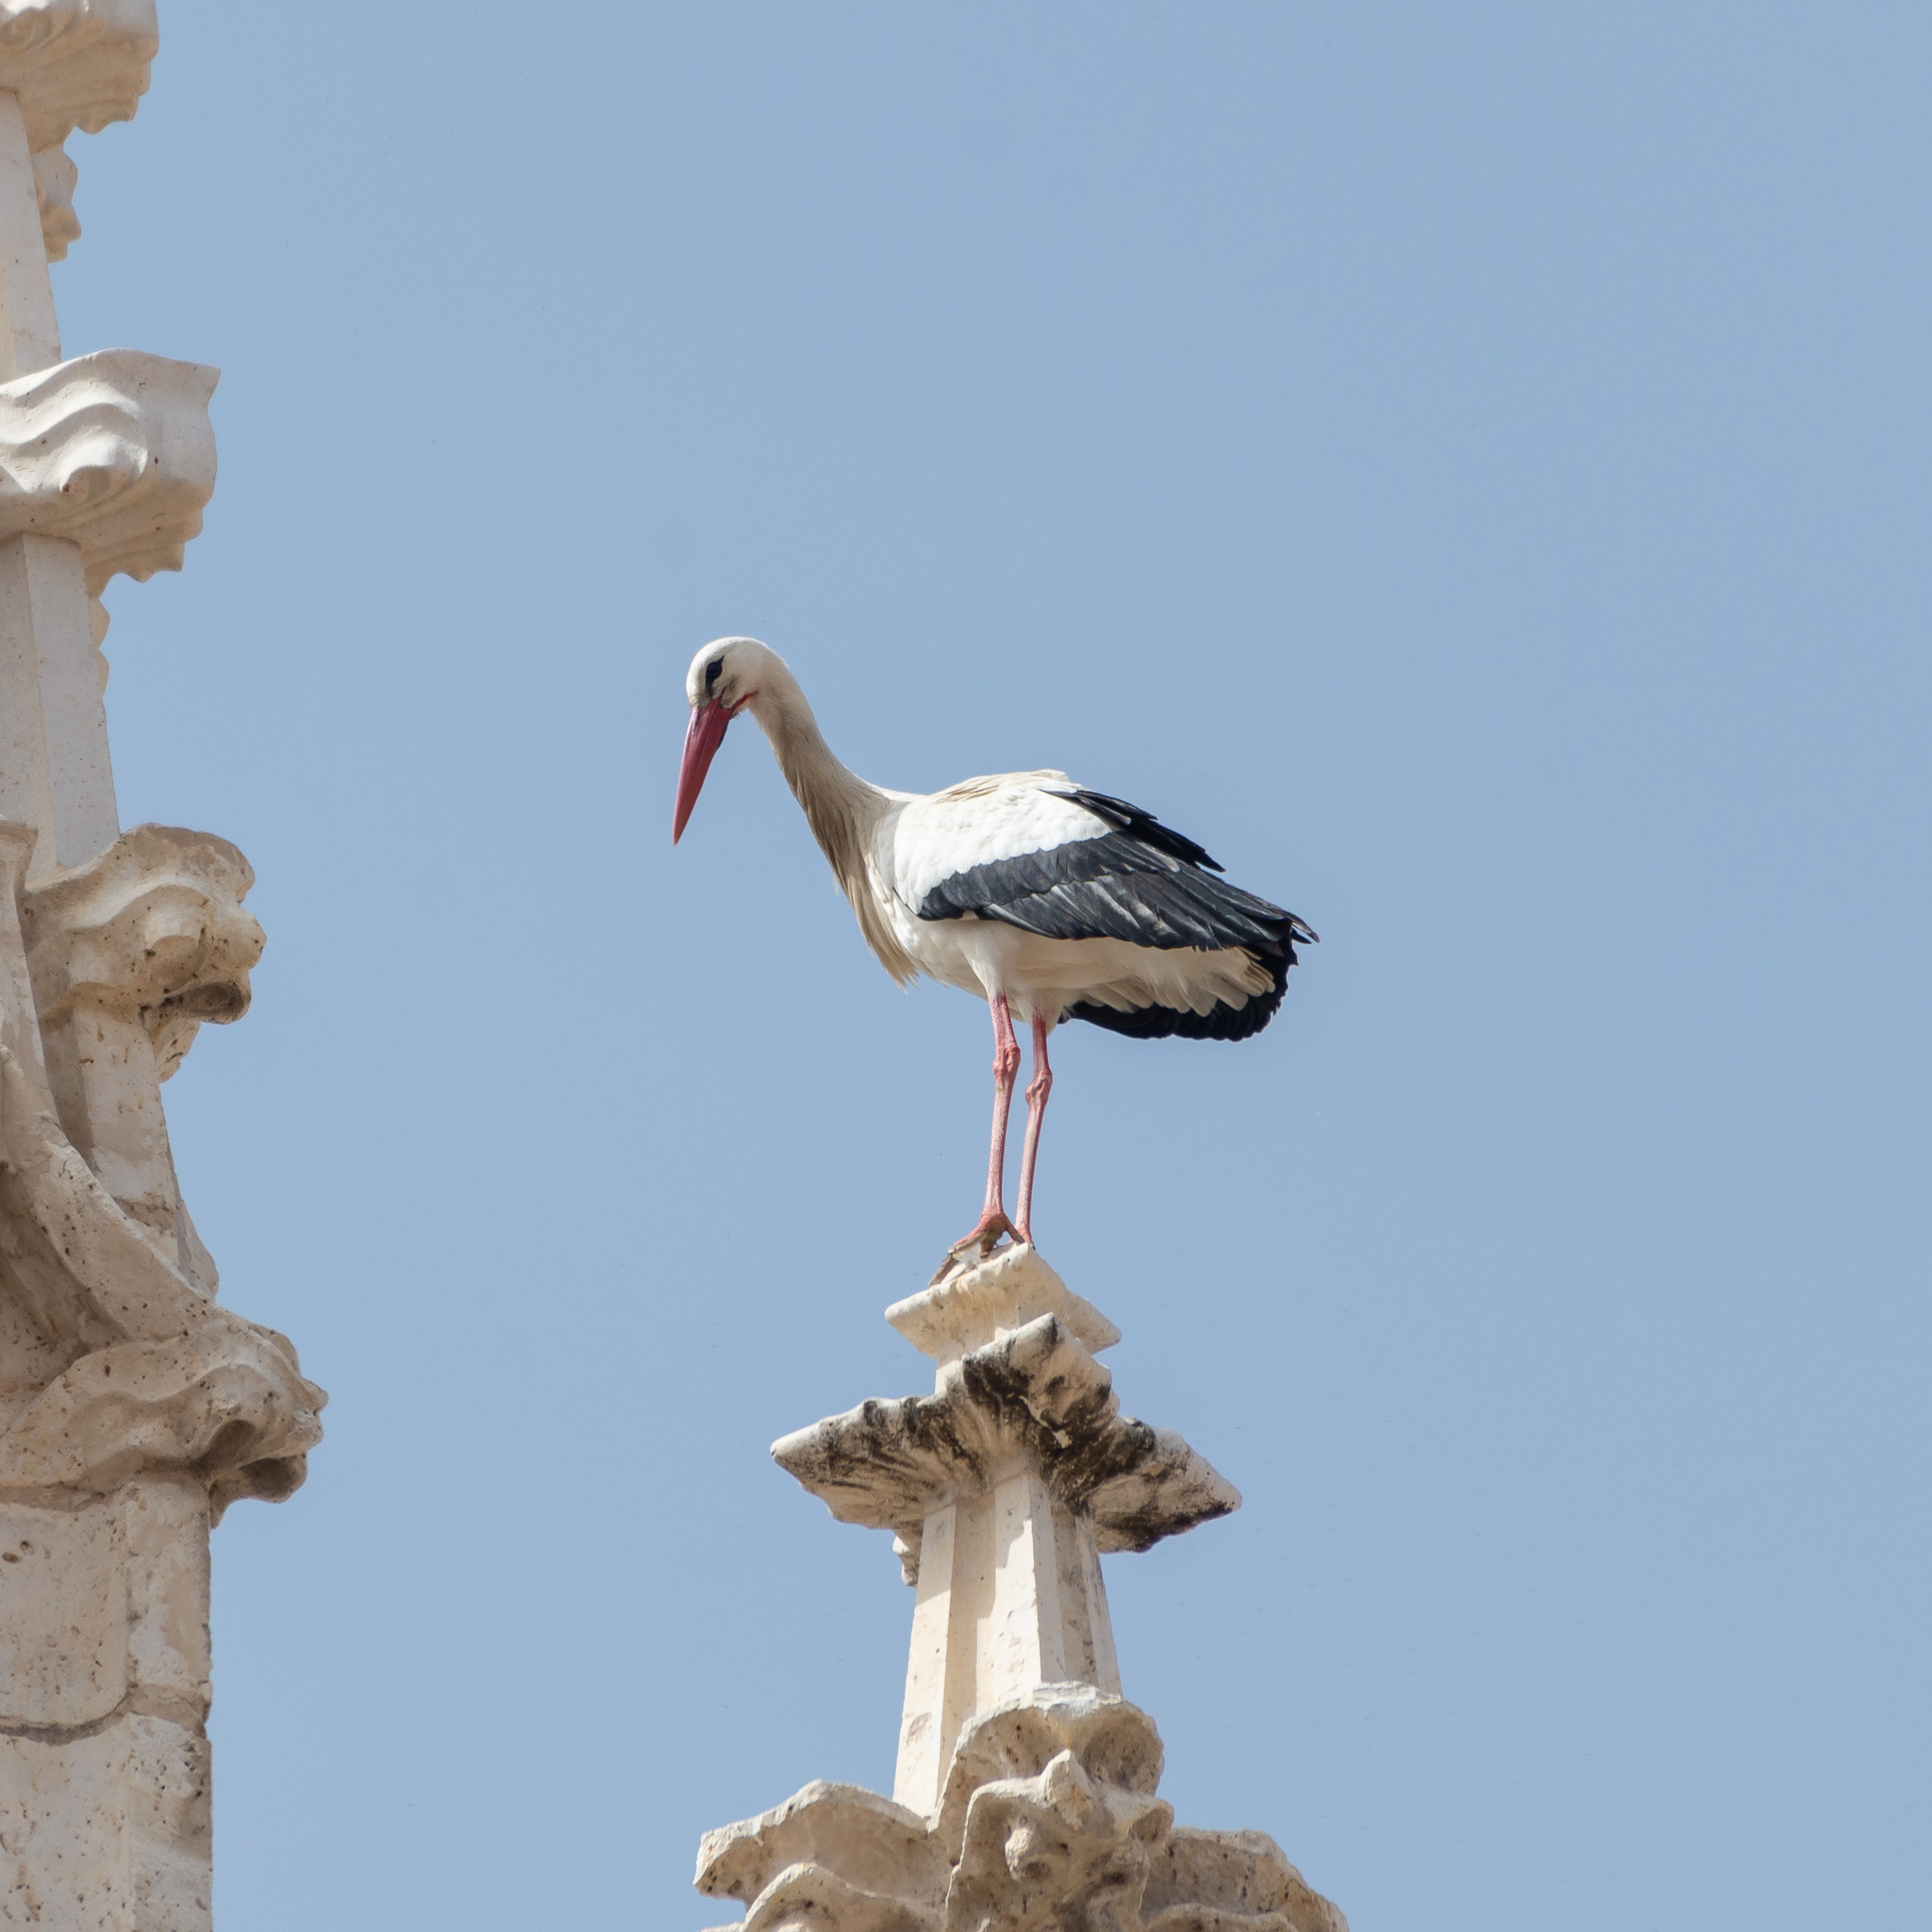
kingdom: Animalia
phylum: Chordata
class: Aves
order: Ciconiiformes
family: Ciconiidae
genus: Ciconia
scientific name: Ciconia ciconia
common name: White stork
